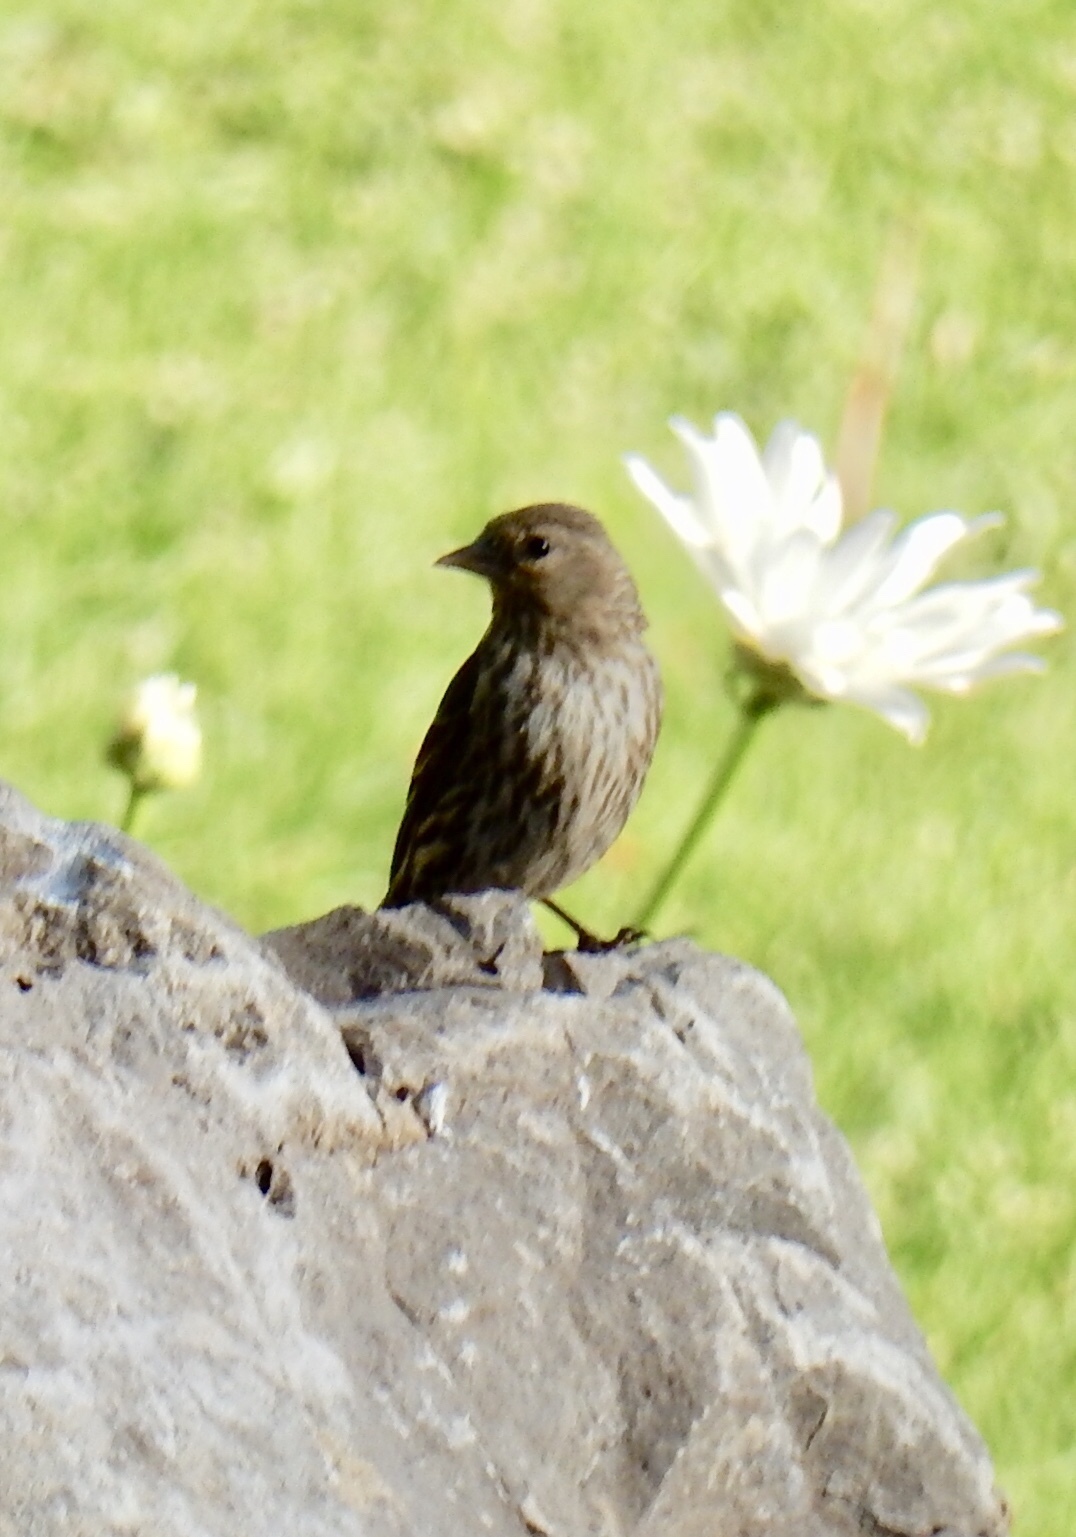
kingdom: Animalia
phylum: Chordata
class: Aves
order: Passeriformes
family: Fringillidae
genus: Spinus
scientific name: Spinus pinus
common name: Pine siskin
